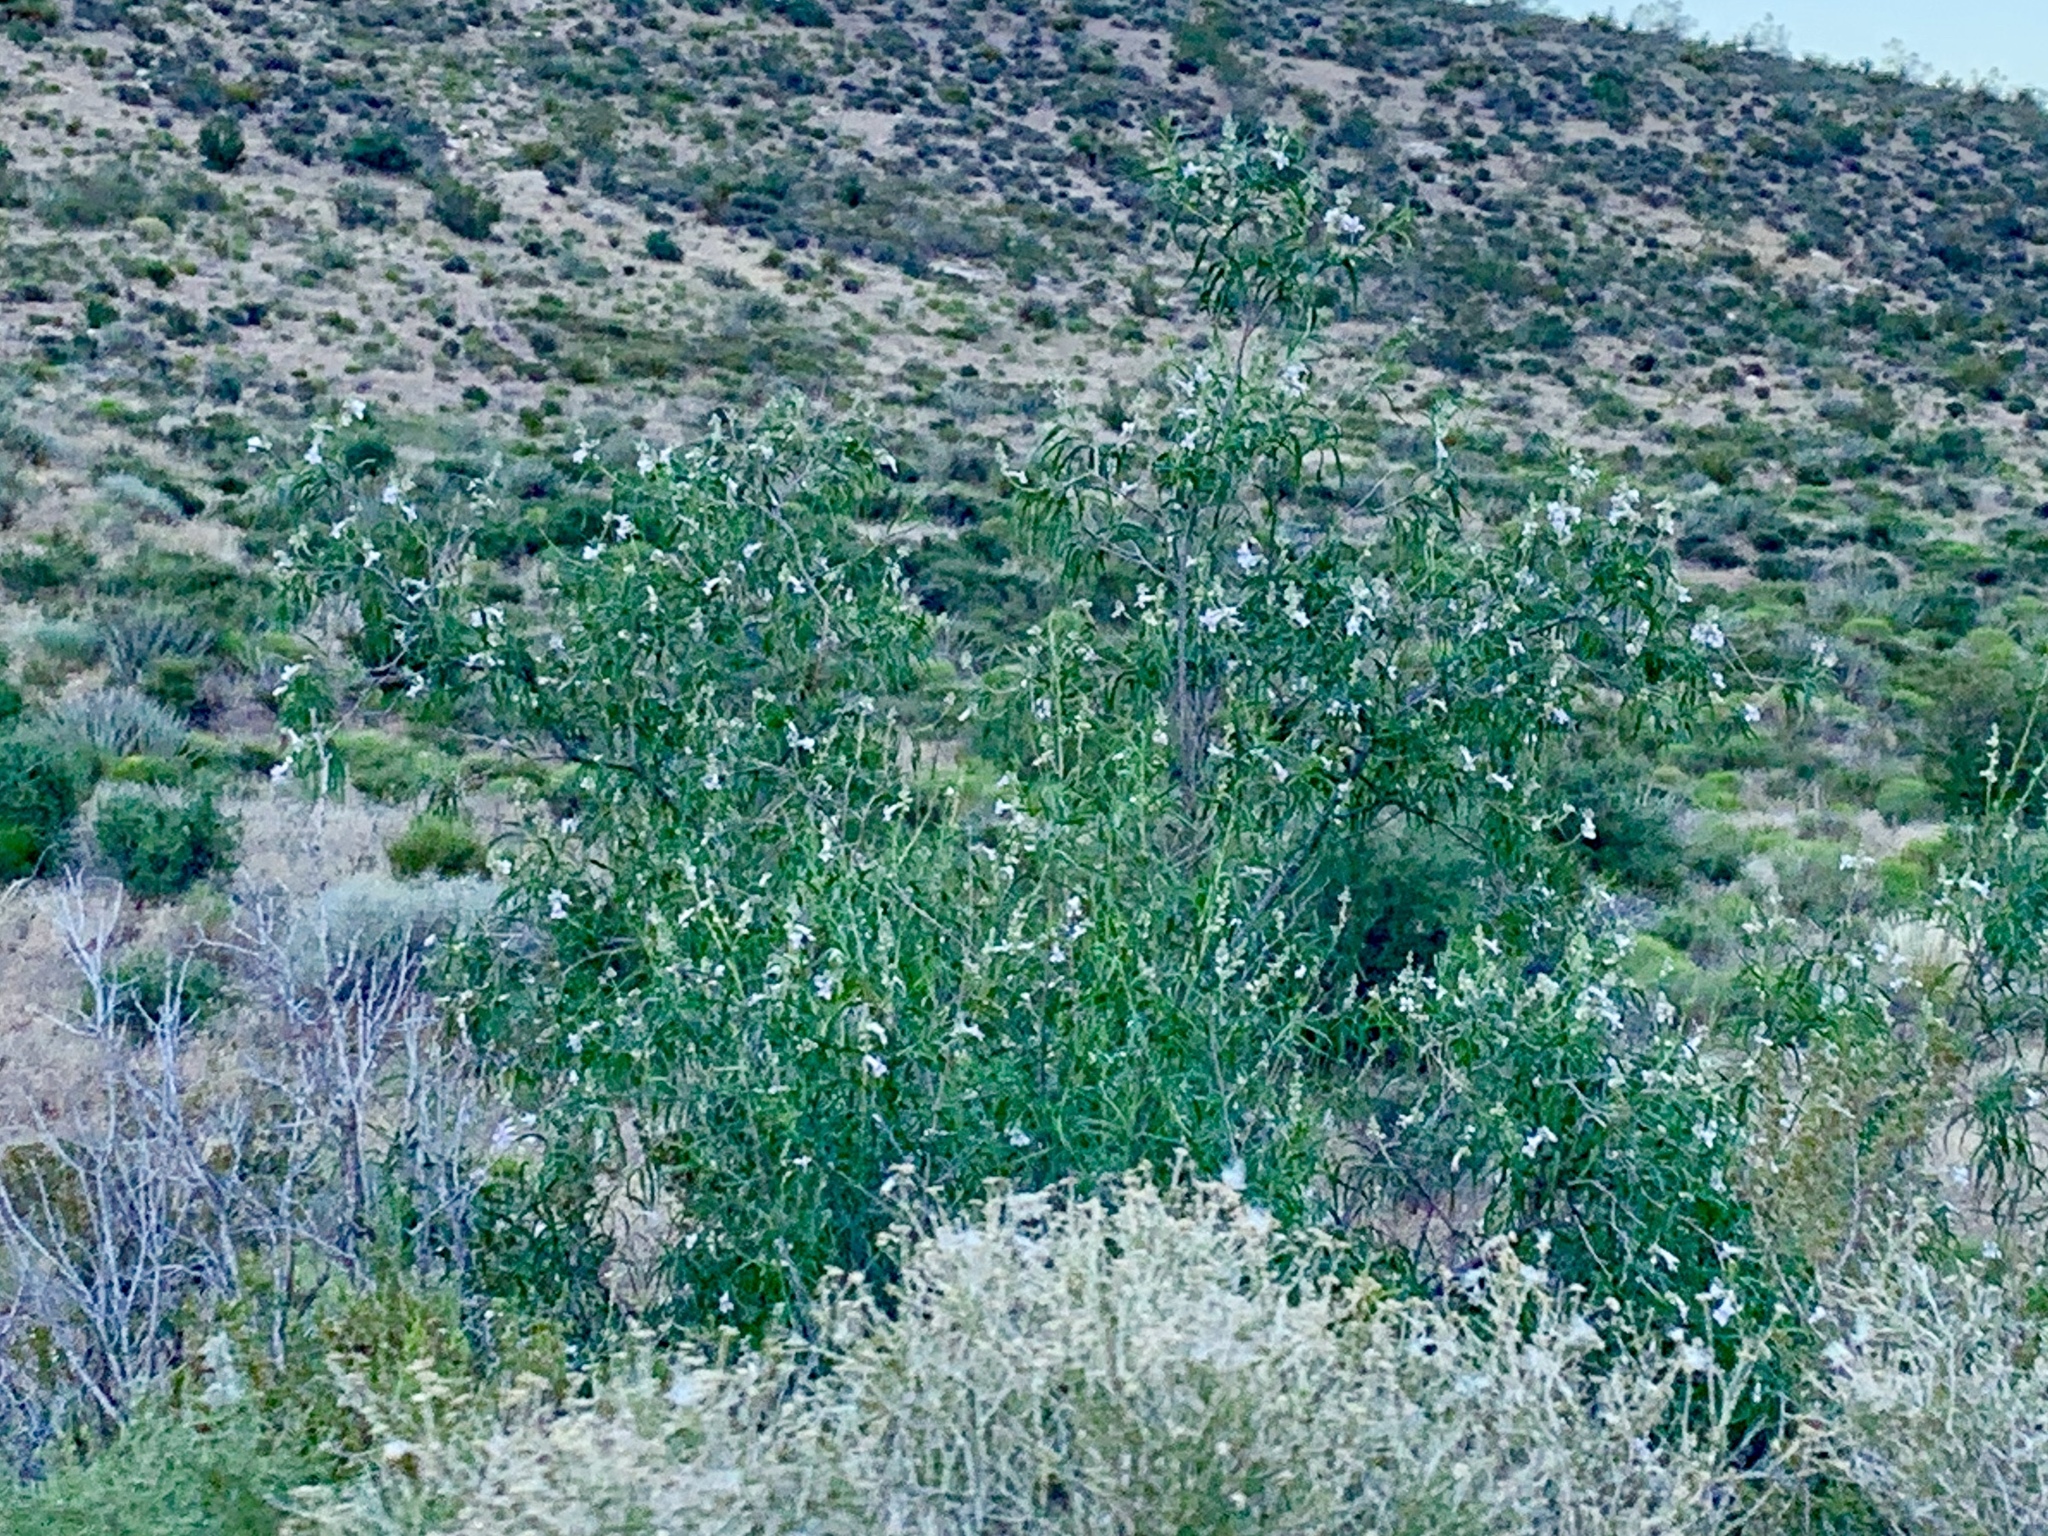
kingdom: Plantae
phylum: Tracheophyta
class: Magnoliopsida
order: Lamiales
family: Bignoniaceae
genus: Chilopsis
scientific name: Chilopsis linearis
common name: Desert-willow
